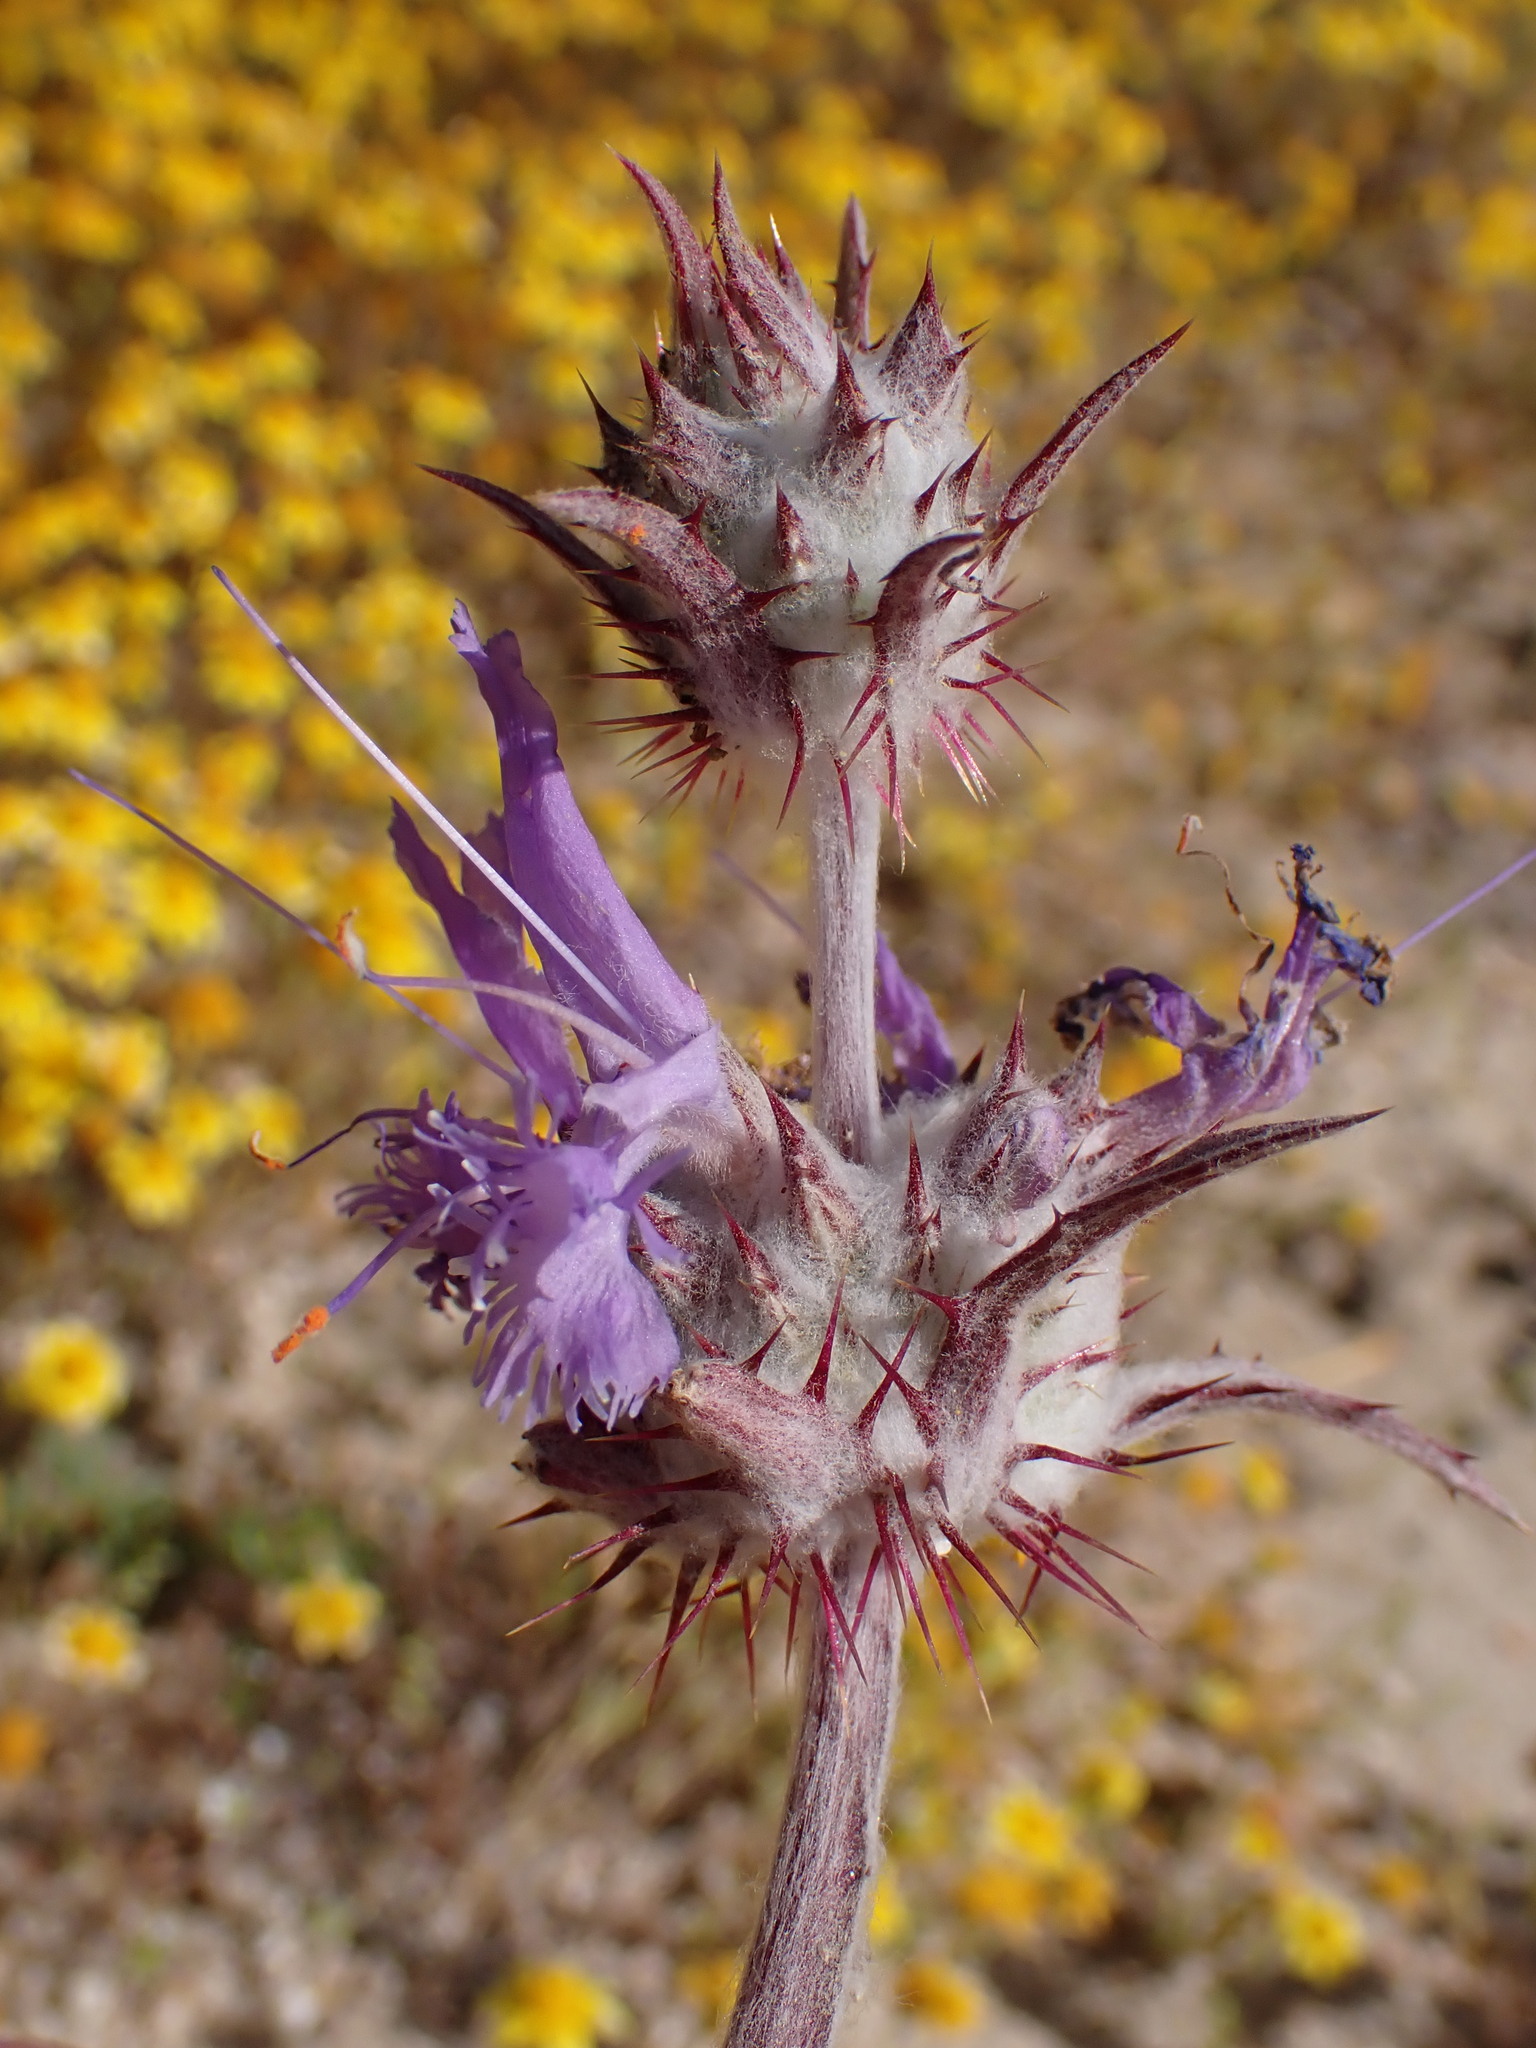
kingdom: Plantae
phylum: Tracheophyta
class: Magnoliopsida
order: Lamiales
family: Lamiaceae
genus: Salvia
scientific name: Salvia carduacea
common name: Thistle sage
